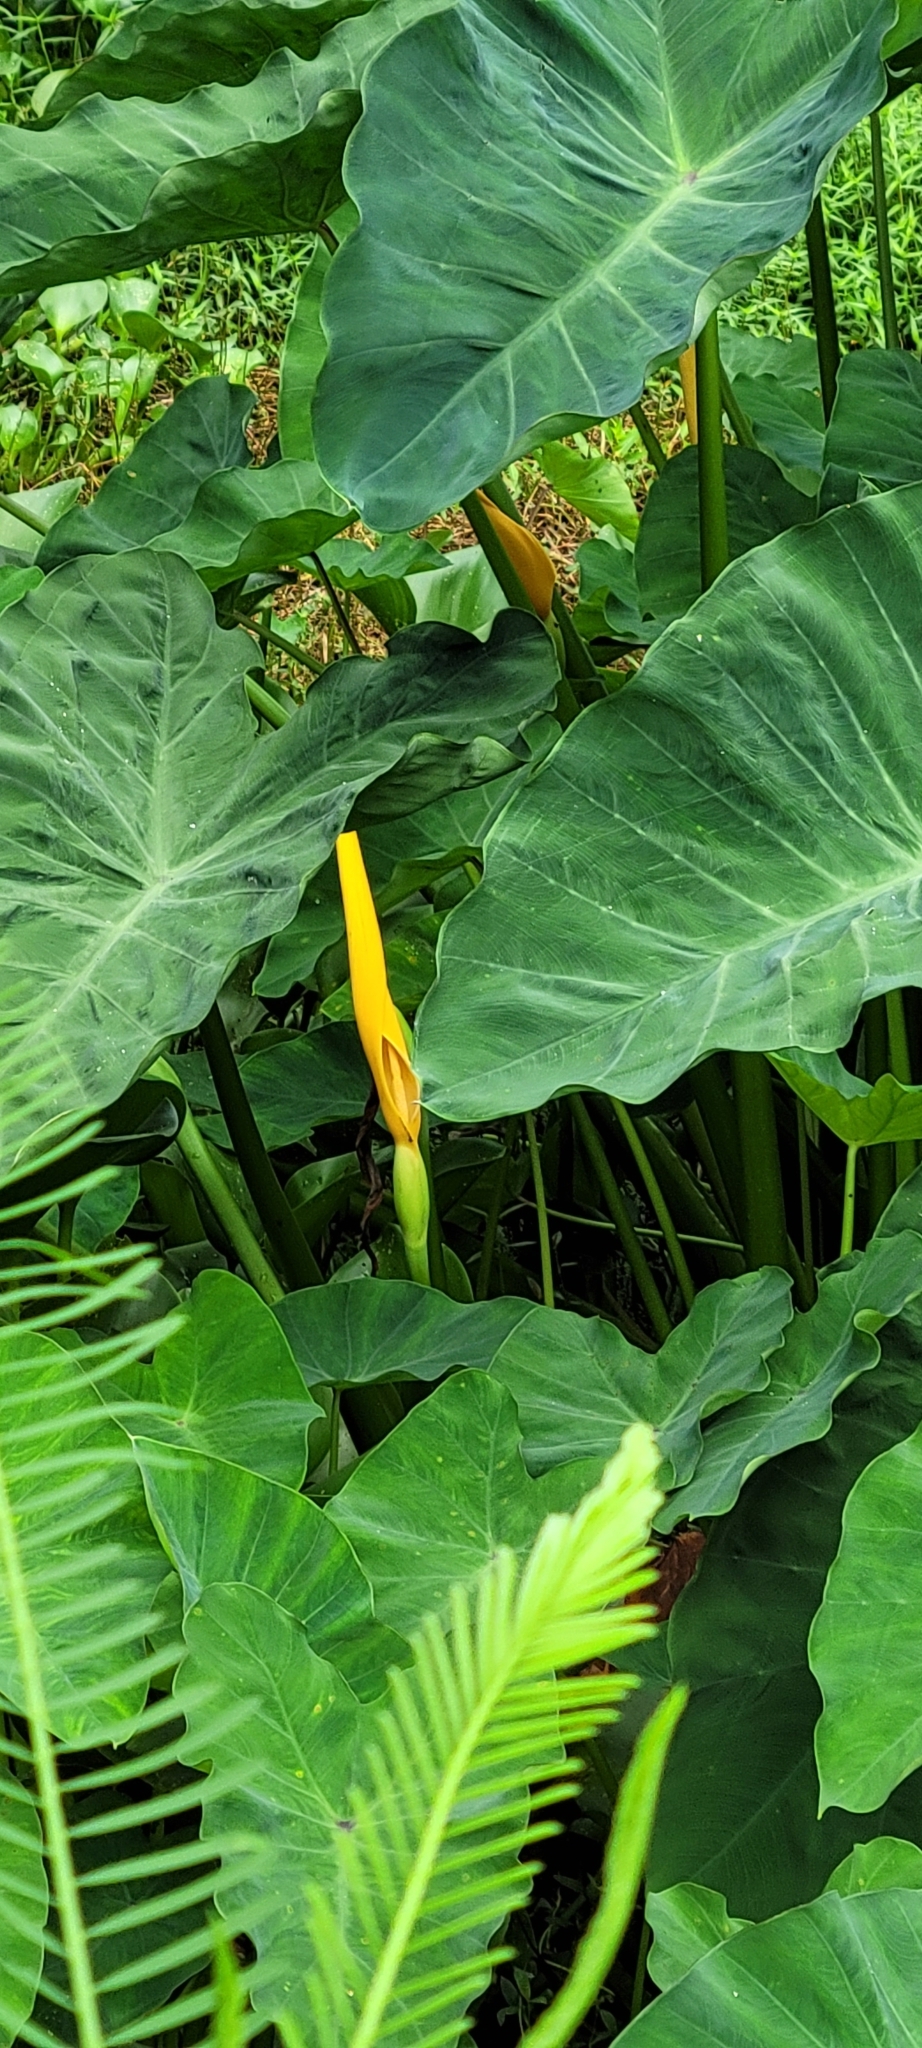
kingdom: Plantae
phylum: Tracheophyta
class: Liliopsida
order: Alismatales
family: Araceae
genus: Colocasia
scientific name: Colocasia esculenta
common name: Taro
